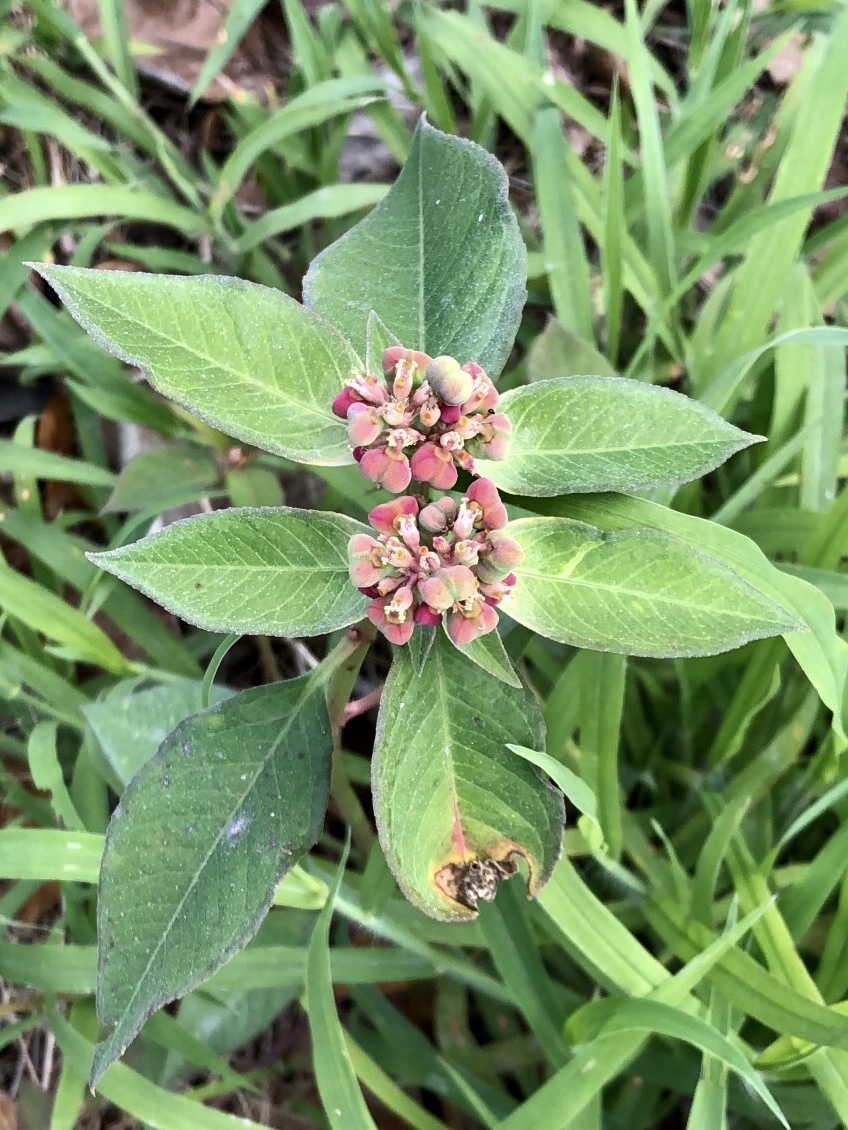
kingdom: Plantae
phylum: Tracheophyta
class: Magnoliopsida
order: Malpighiales
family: Euphorbiaceae
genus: Euphorbia
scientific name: Euphorbia heterophylla
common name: Mexican fireplant
